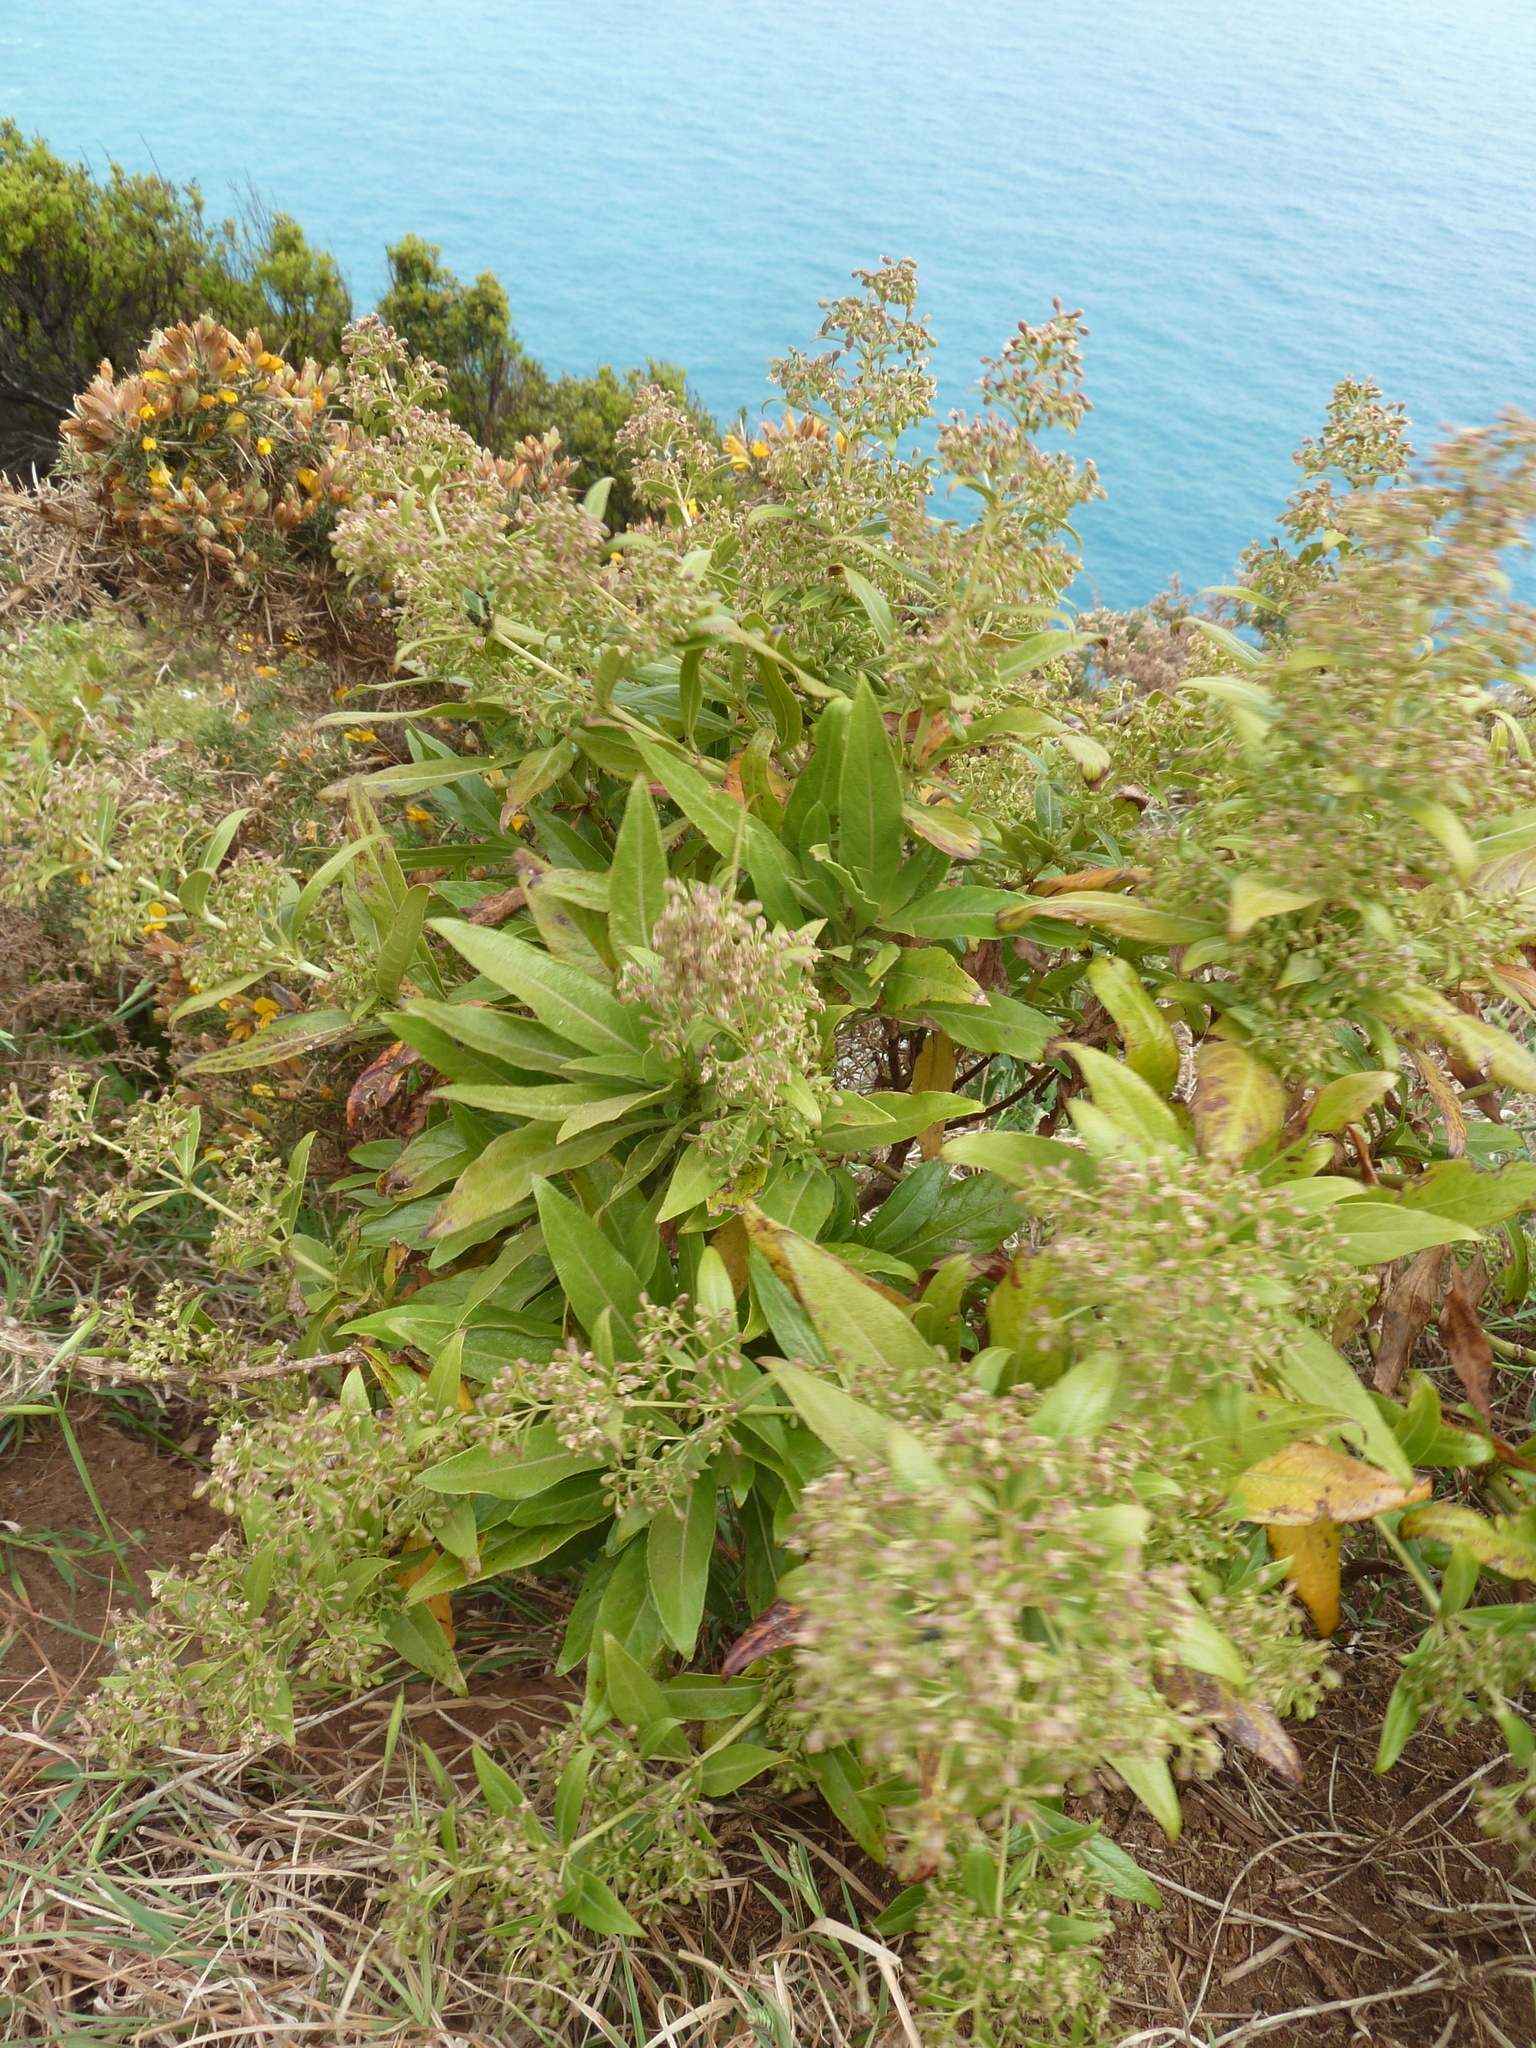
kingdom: Plantae
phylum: Tracheophyta
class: Magnoliopsida
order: Gentianales
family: Rubiaceae
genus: Phyllis
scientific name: Phyllis nobla
